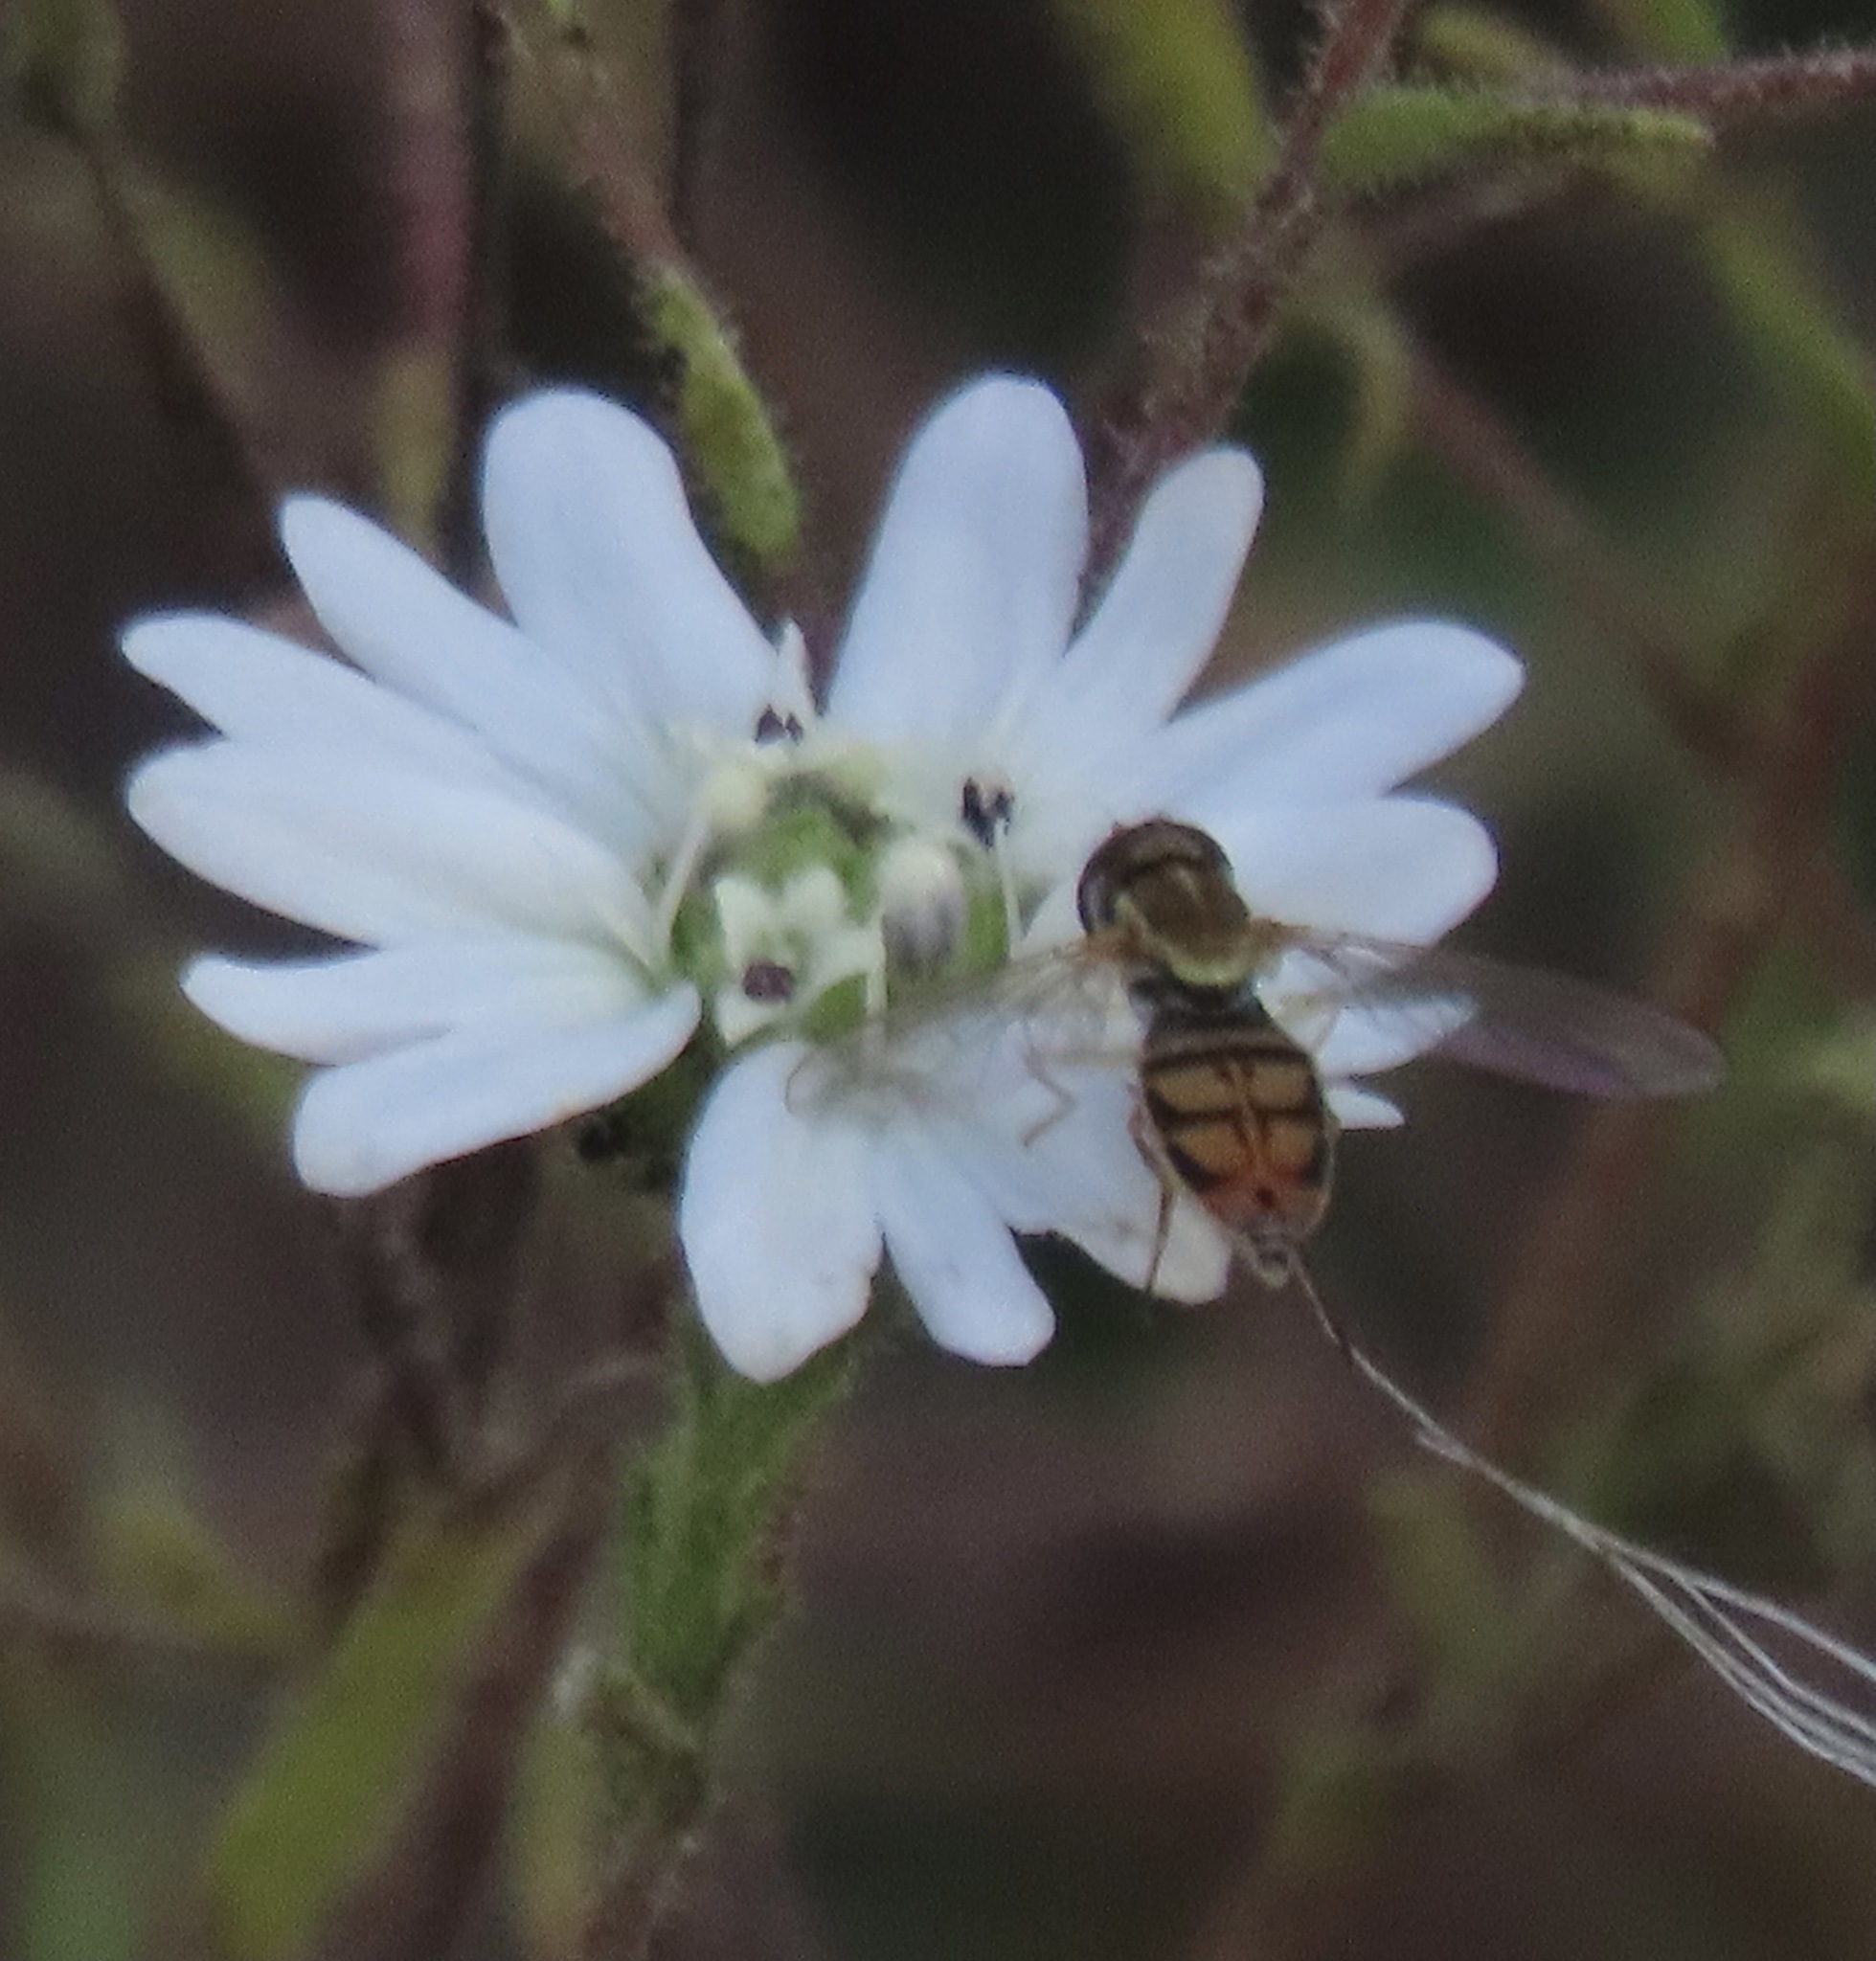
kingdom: Animalia
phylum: Arthropoda
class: Insecta
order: Diptera
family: Syrphidae
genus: Toxomerus
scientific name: Toxomerus marginatus
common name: Syrphid fly
